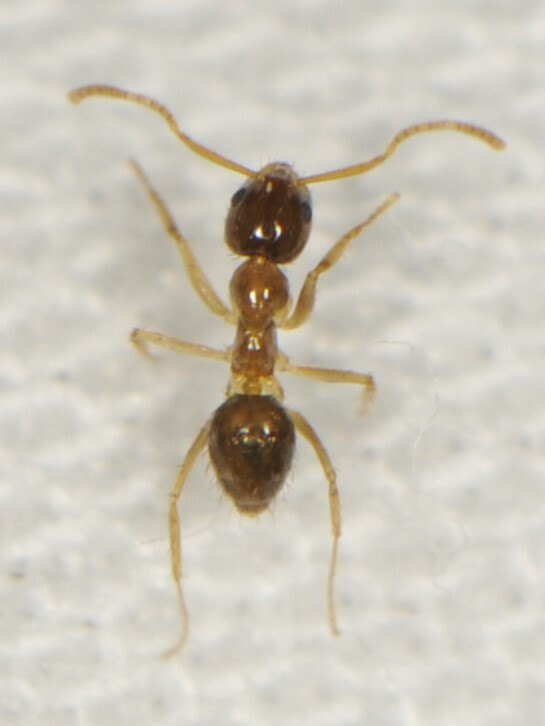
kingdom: Animalia
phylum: Arthropoda
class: Insecta
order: Hymenoptera
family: Formicidae
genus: Nylanderia
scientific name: Nylanderia
